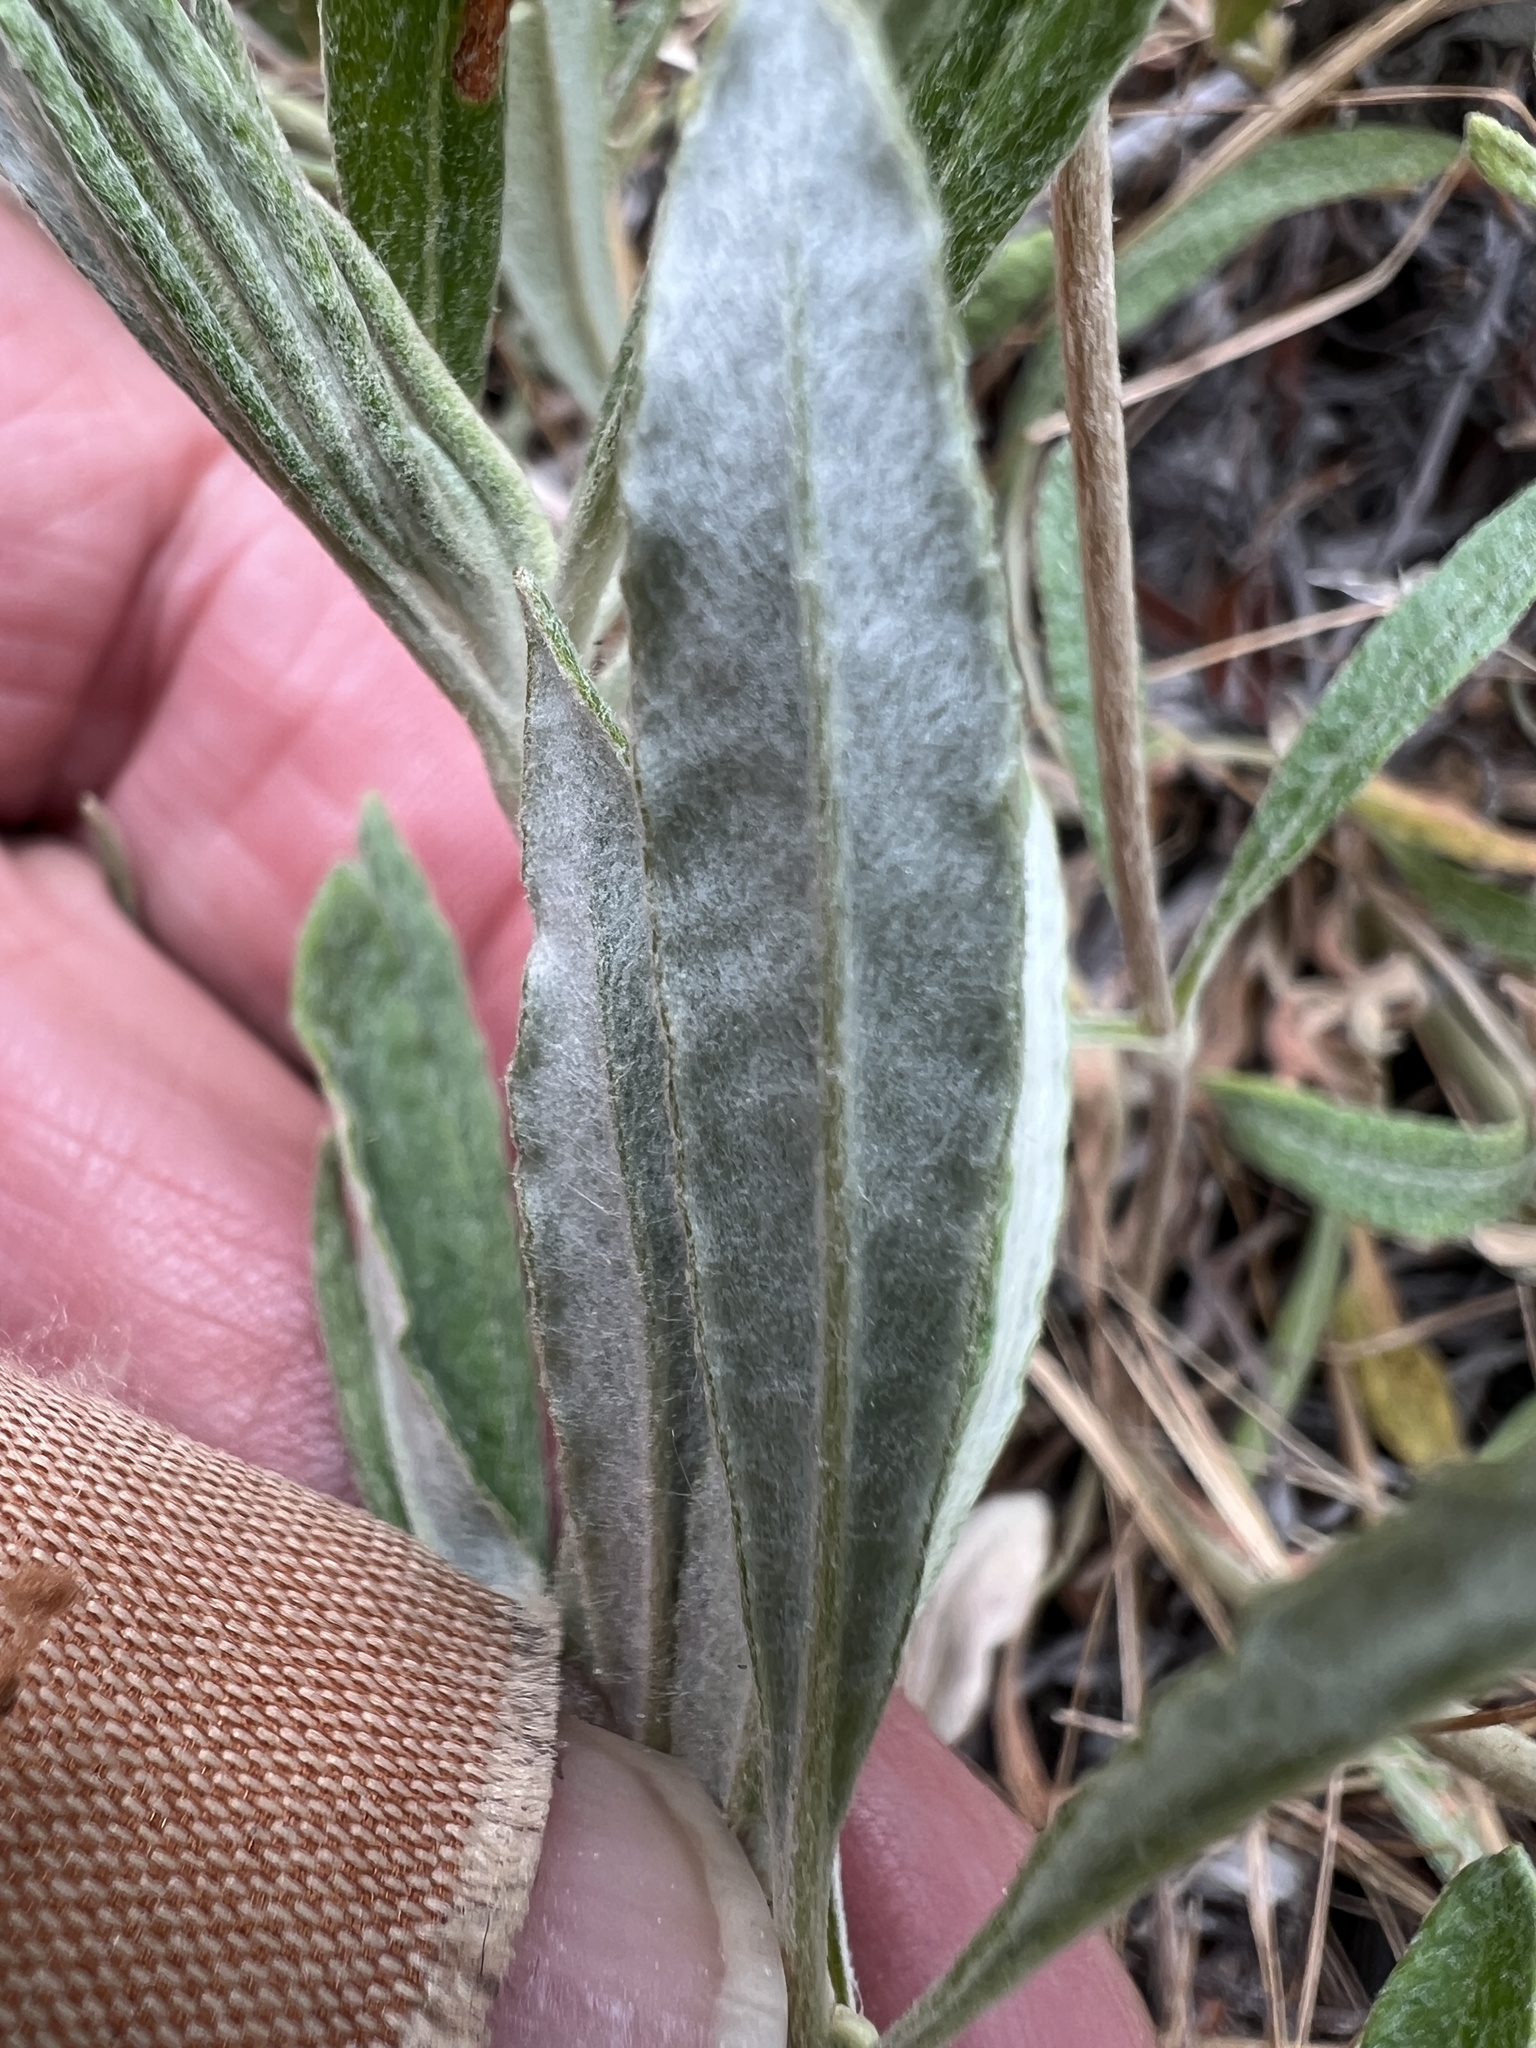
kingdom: Plantae
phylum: Tracheophyta
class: Magnoliopsida
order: Caryophyllales
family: Polygonaceae
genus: Eriogonum
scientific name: Eriogonum heracleoides
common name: Wyeth's buckwheat
